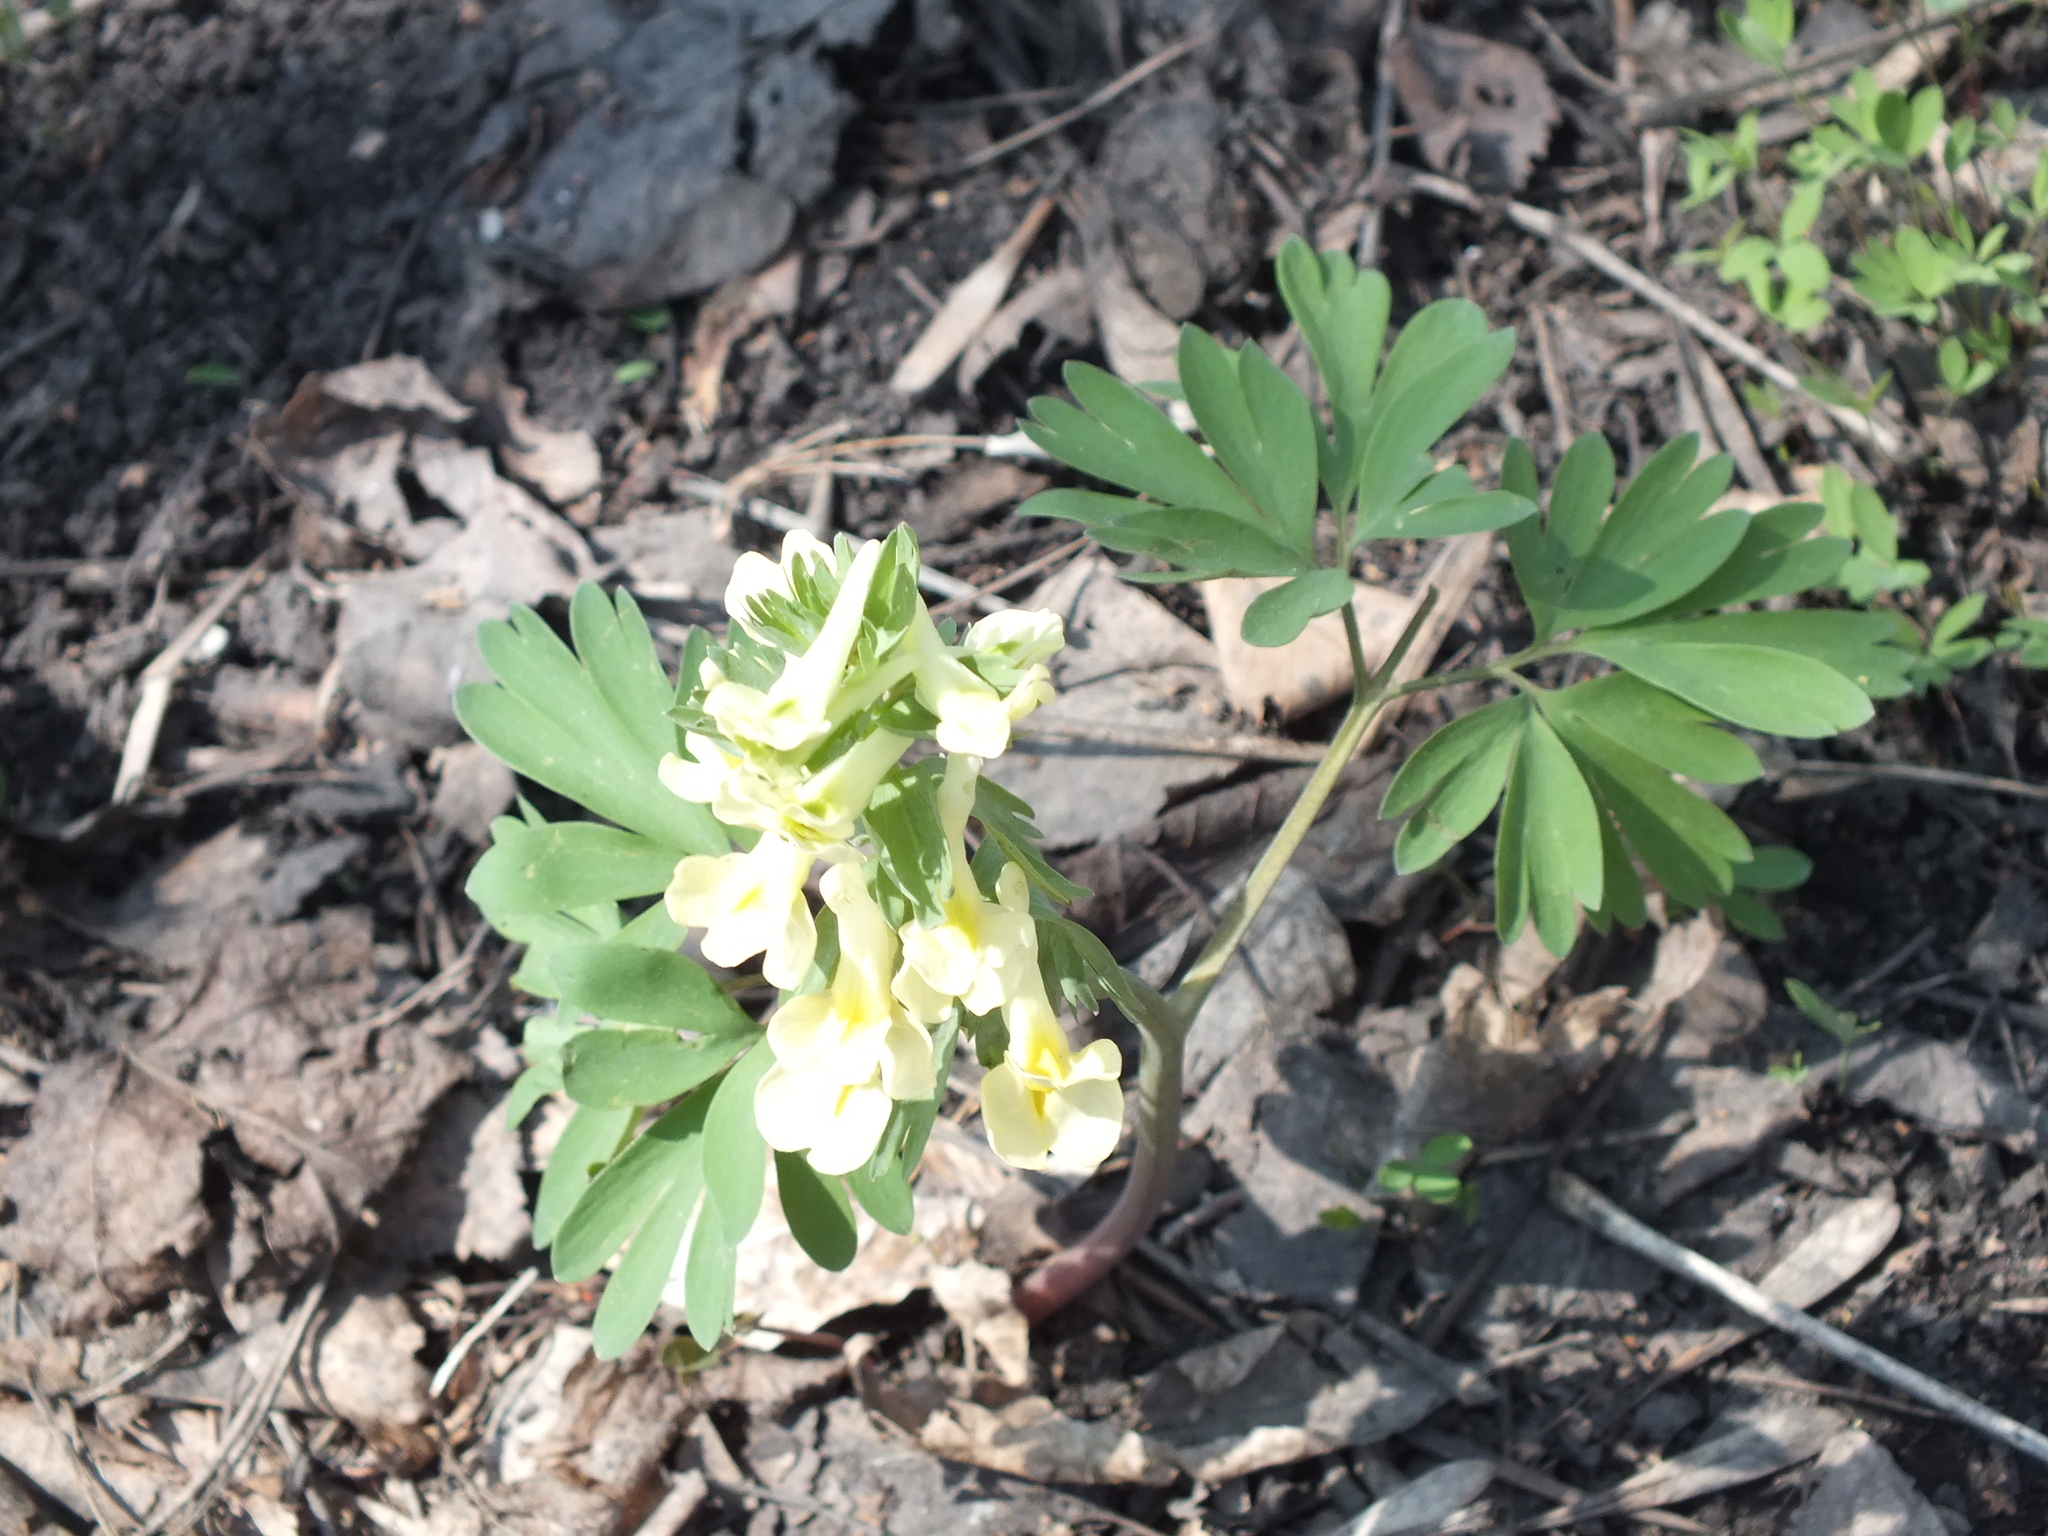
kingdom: Plantae
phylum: Tracheophyta
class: Magnoliopsida
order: Ranunculales
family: Papaveraceae
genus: Corydalis
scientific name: Corydalis bracteata
